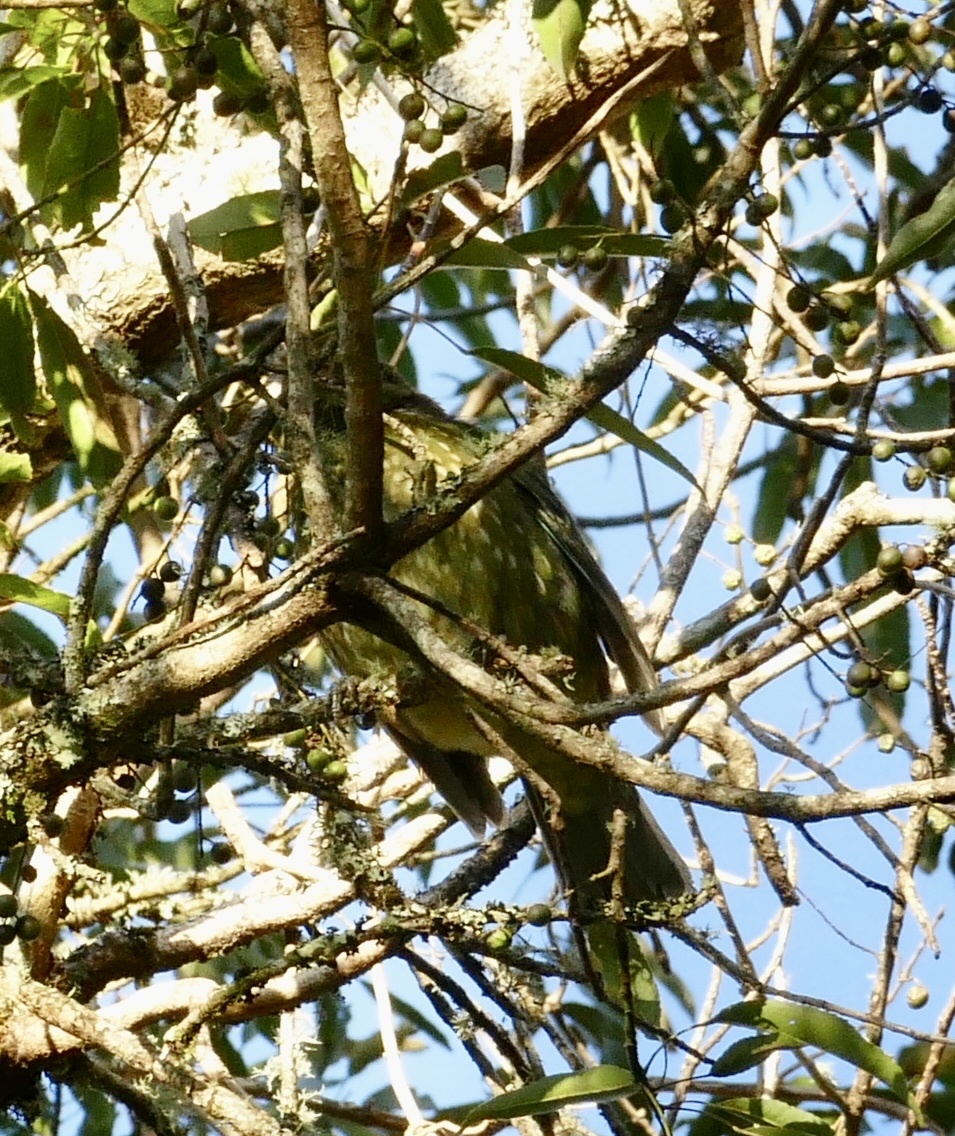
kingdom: Animalia
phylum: Chordata
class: Aves
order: Passeriformes
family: Ptilonorhynchidae
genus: Ailuroedus
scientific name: Ailuroedus crassirostris
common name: Green catbird
